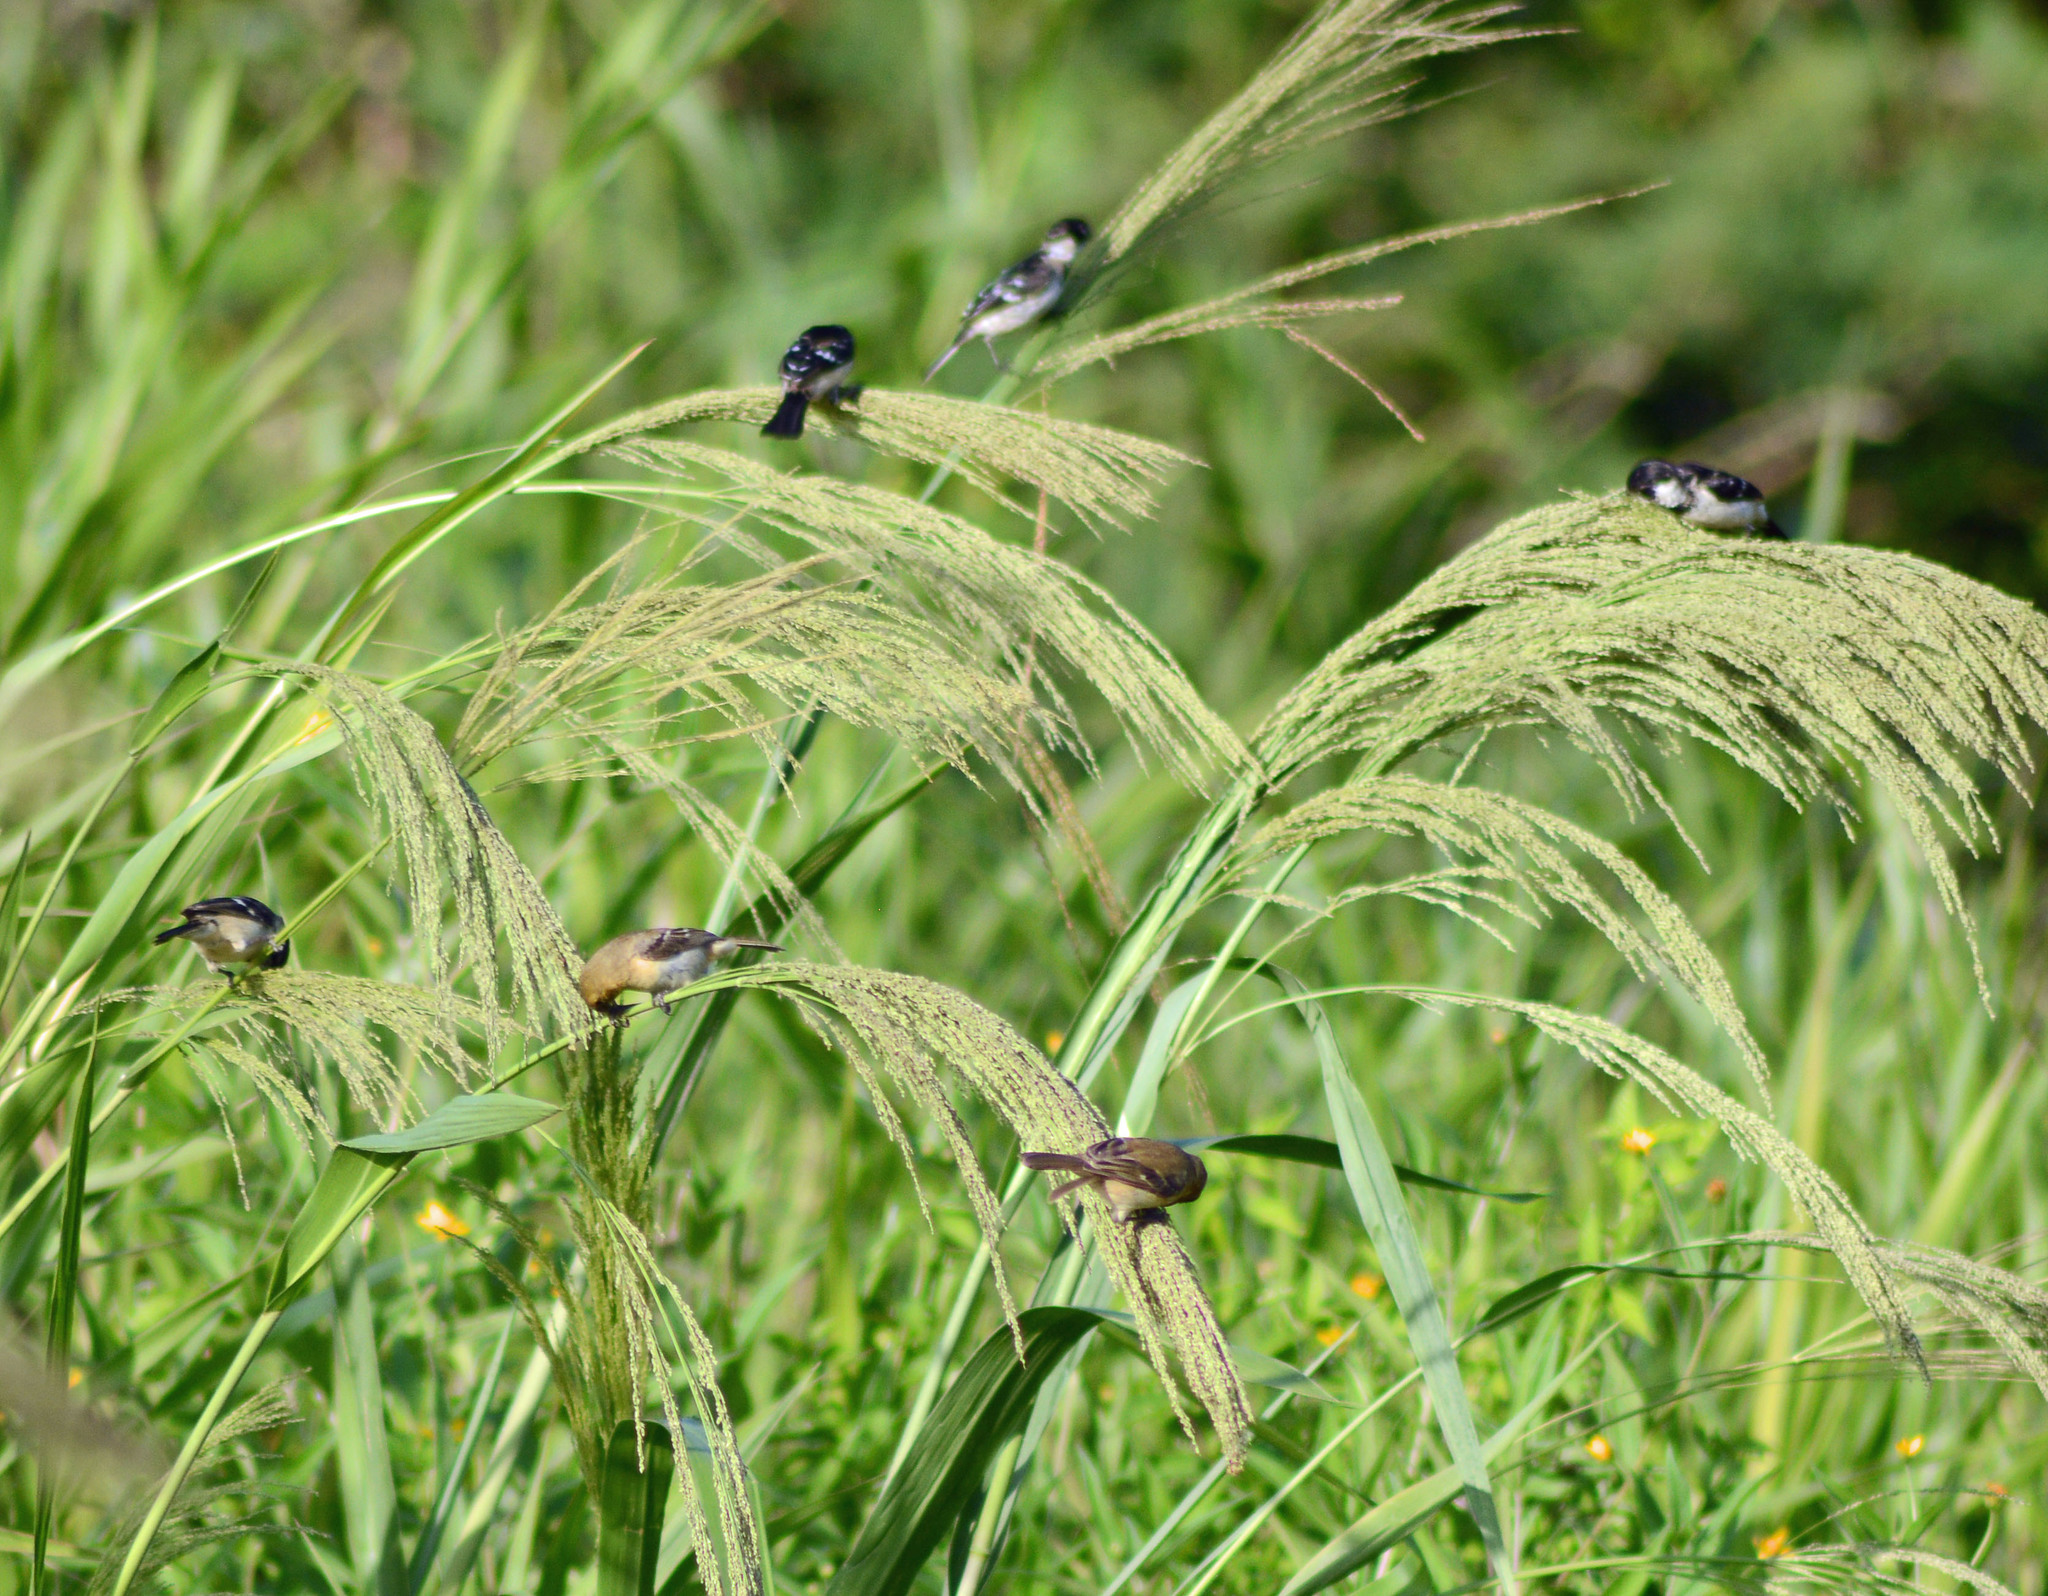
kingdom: Animalia
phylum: Chordata
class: Aves
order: Passeriformes
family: Thraupidae
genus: Sporophila
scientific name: Sporophila morelleti
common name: Morelet's seedeater
